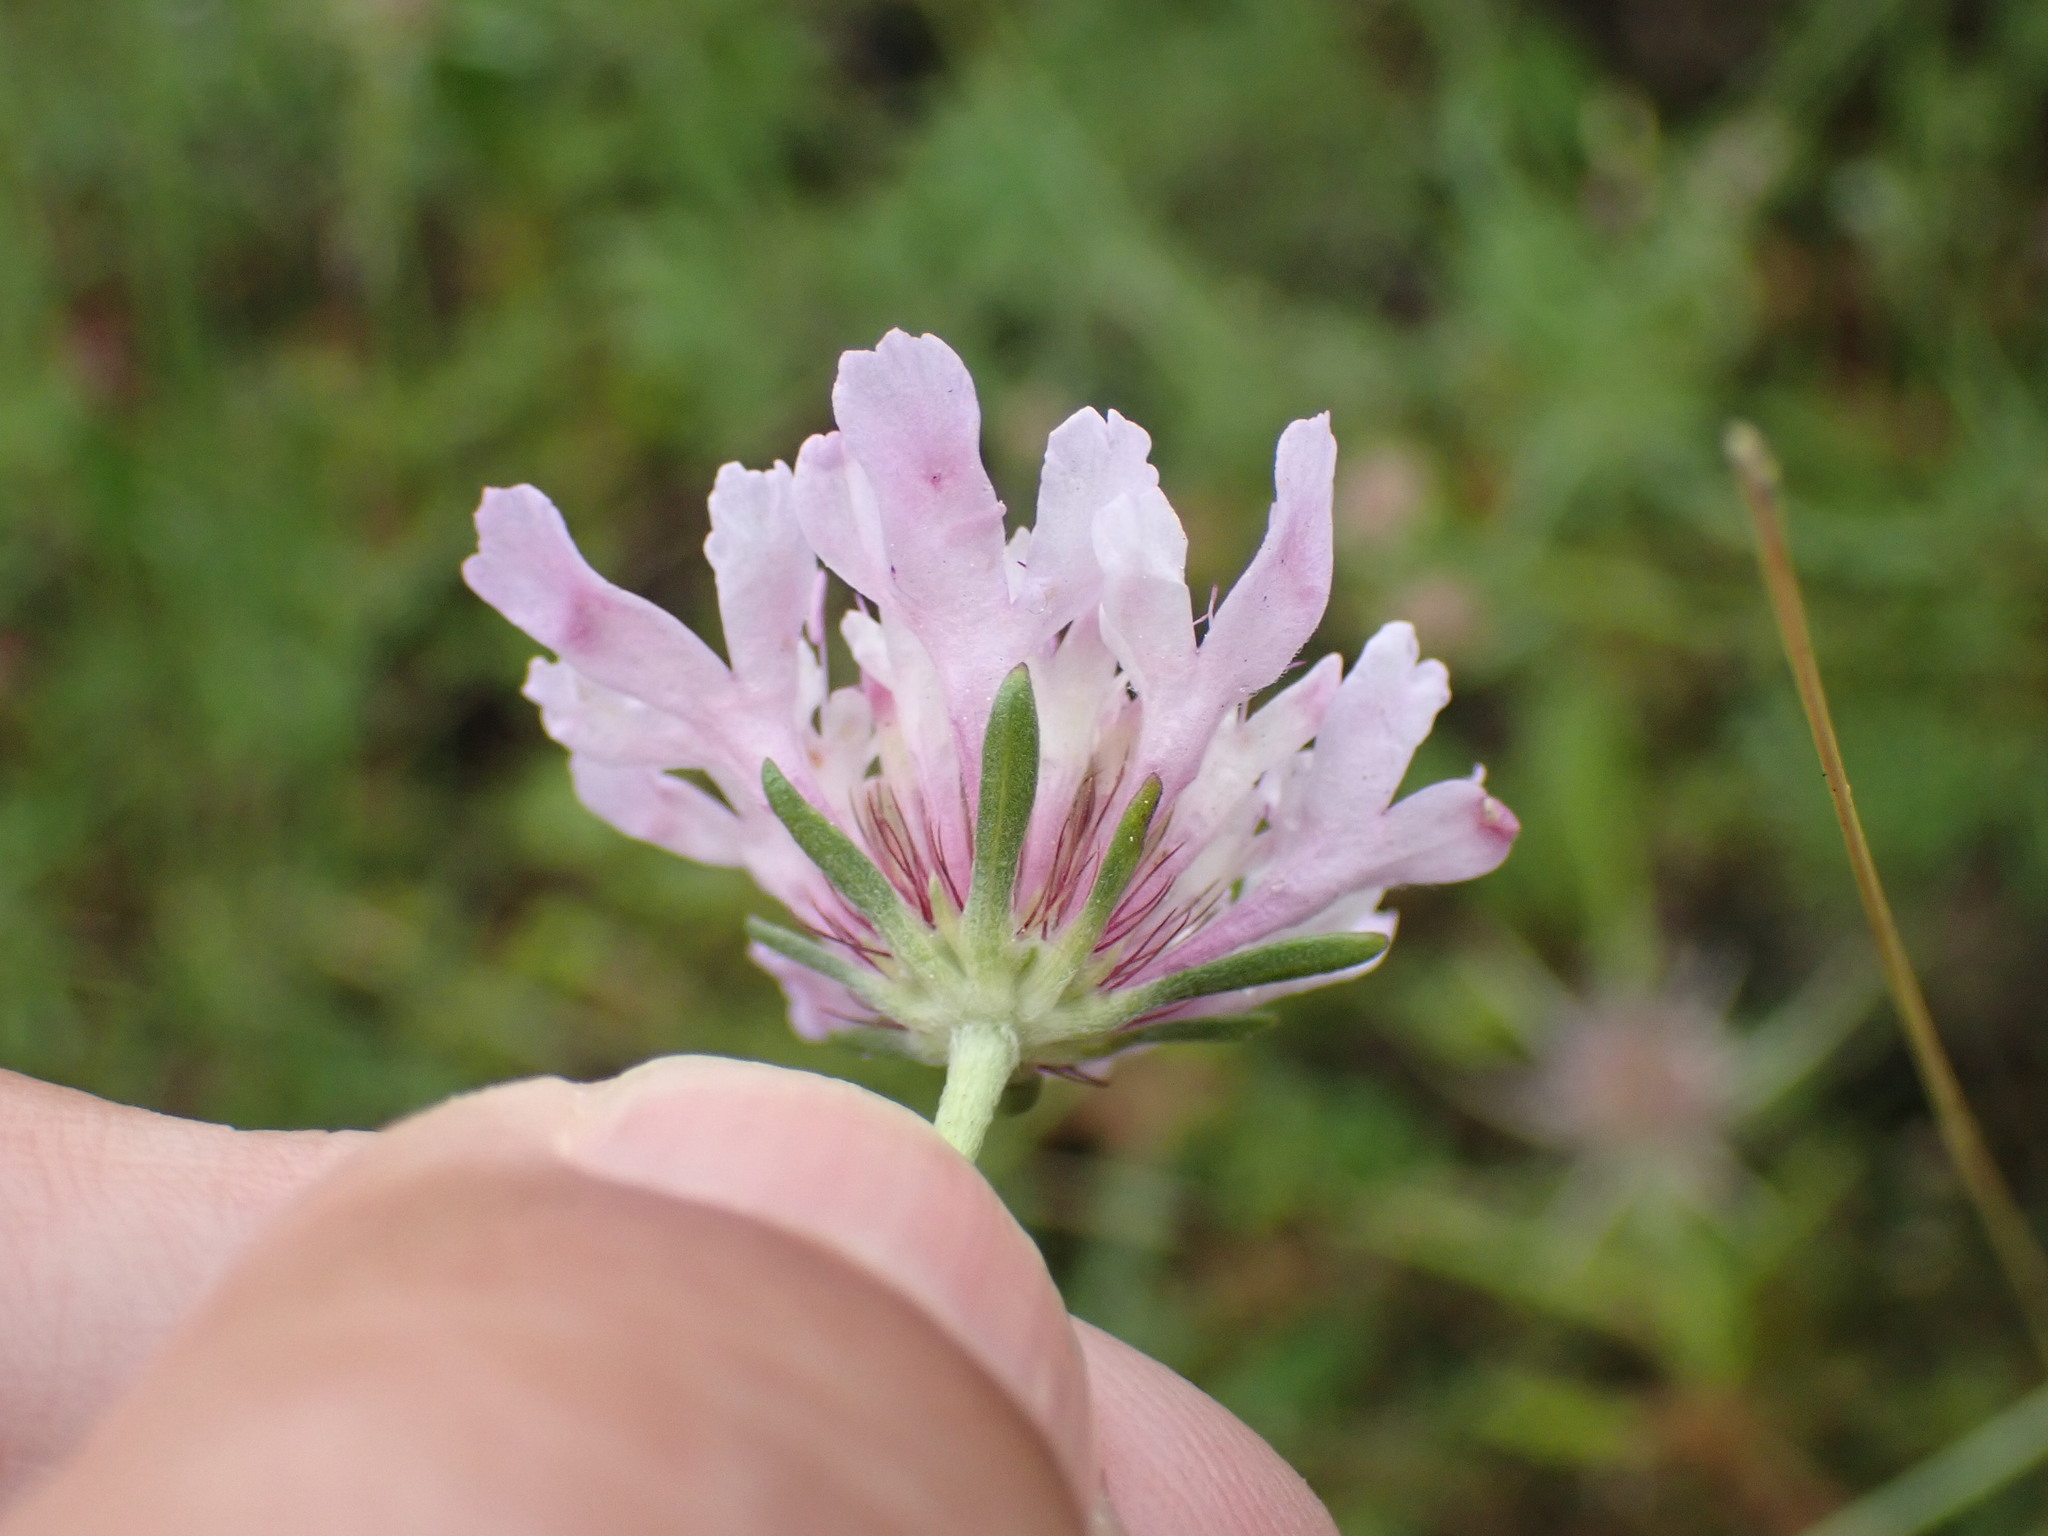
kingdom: Plantae
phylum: Tracheophyta
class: Magnoliopsida
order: Dipsacales
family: Caprifoliaceae
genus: Scabiosa
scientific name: Scabiosa columbaria
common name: Small scabious
